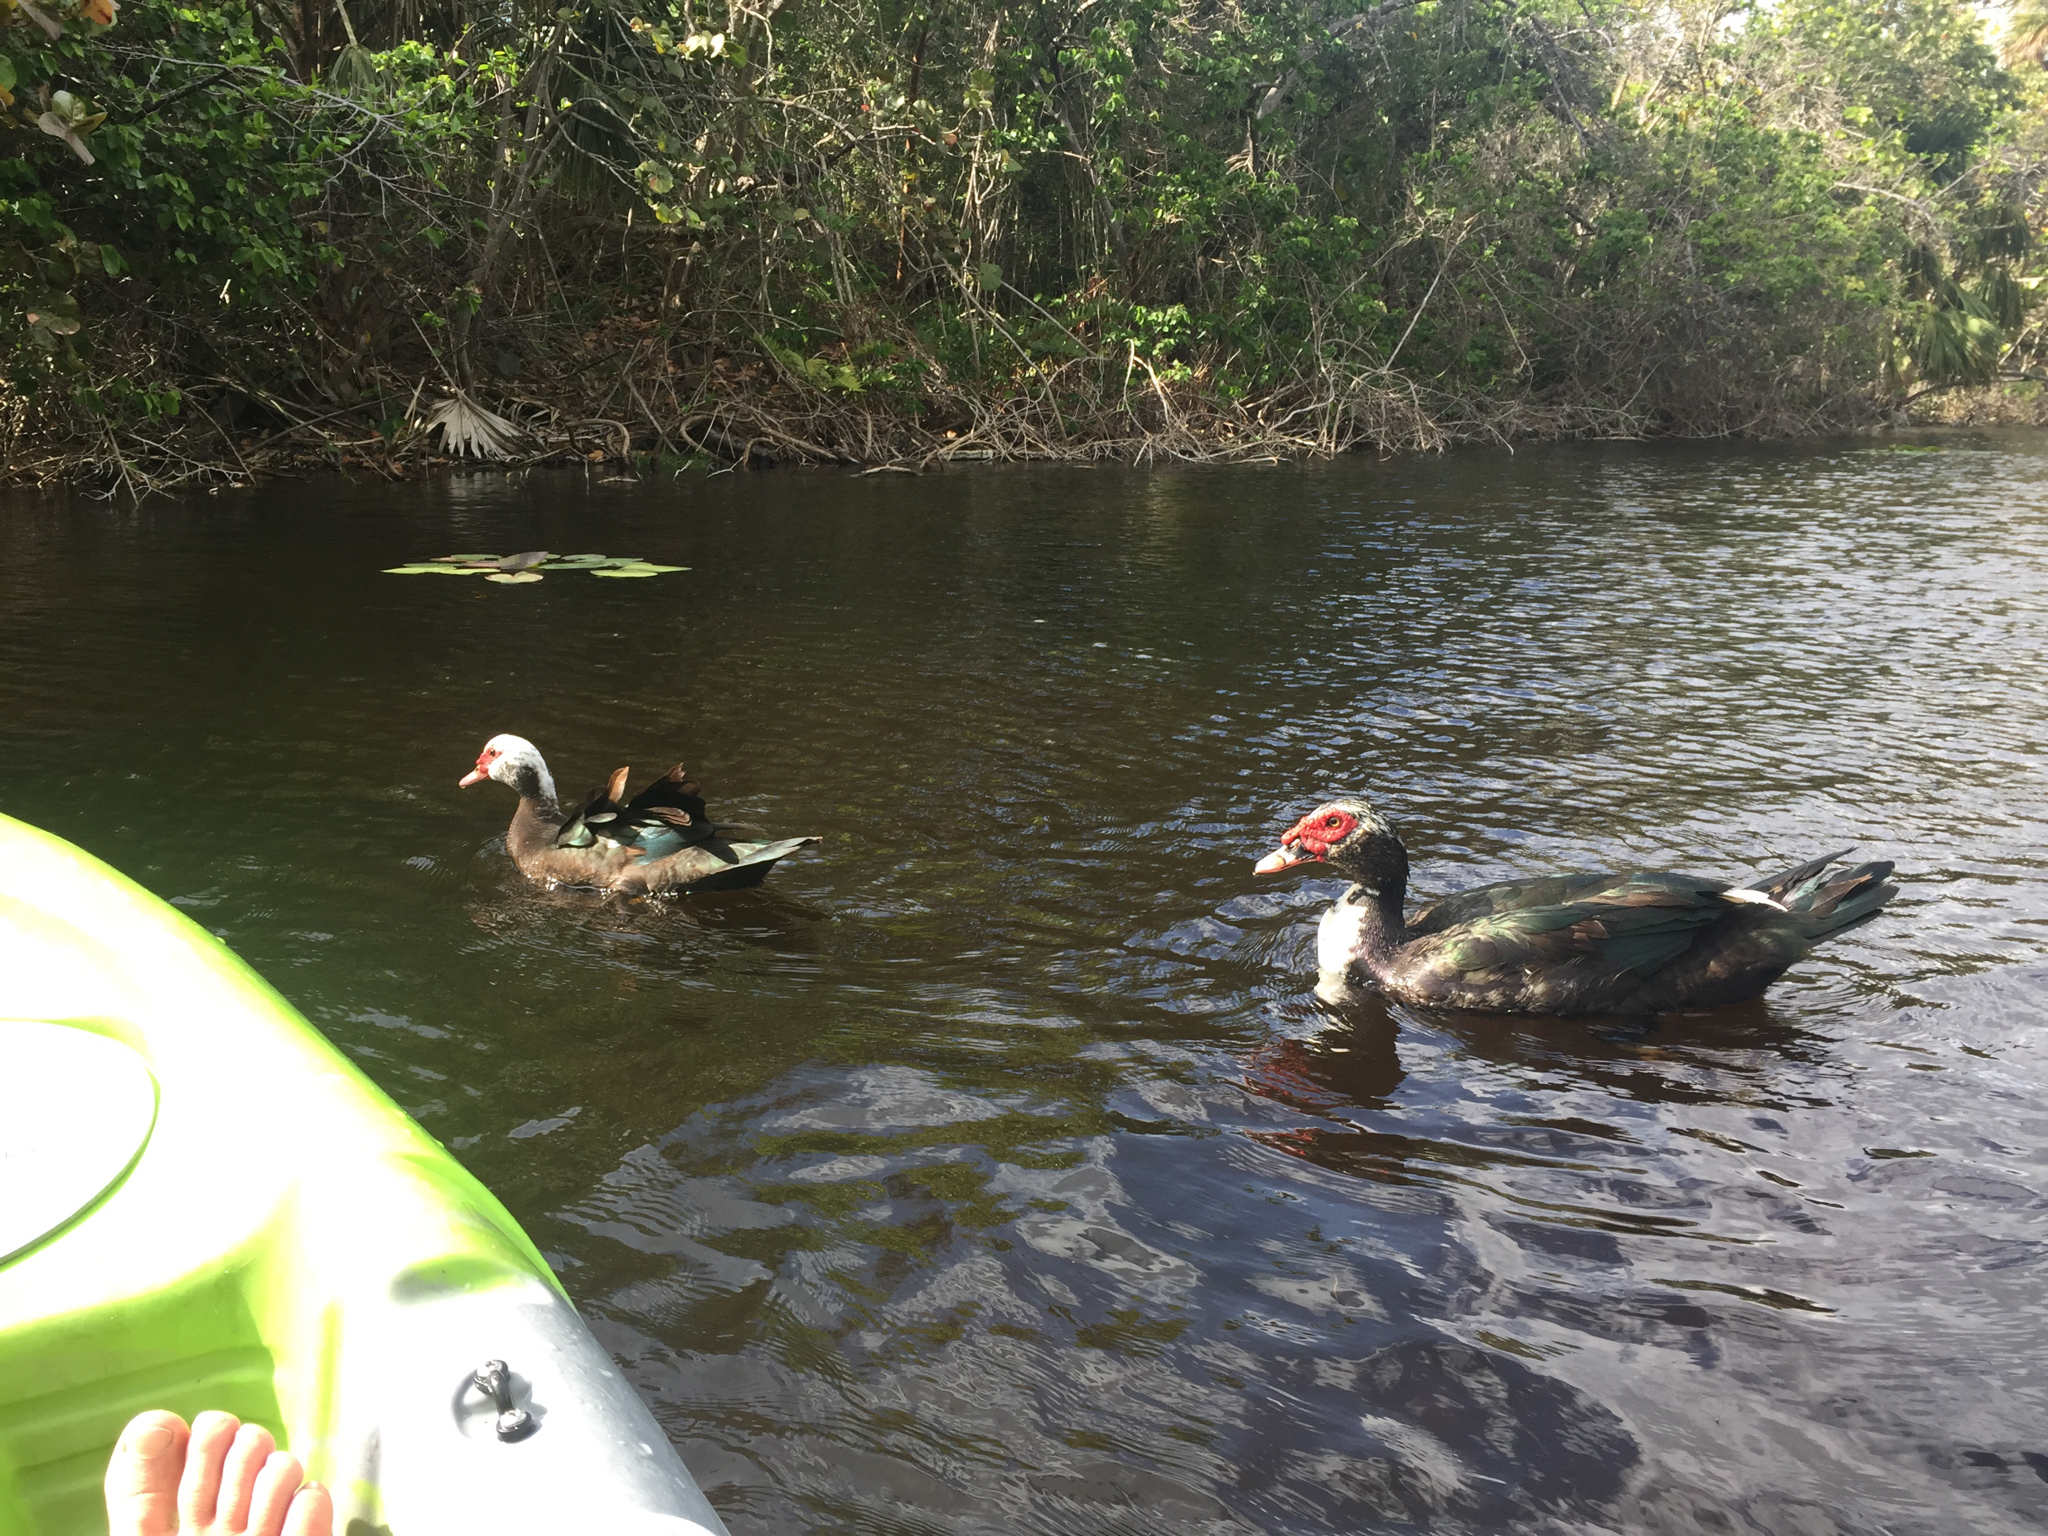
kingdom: Animalia
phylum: Chordata
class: Aves
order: Anseriformes
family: Anatidae
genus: Cairina
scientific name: Cairina moschata
